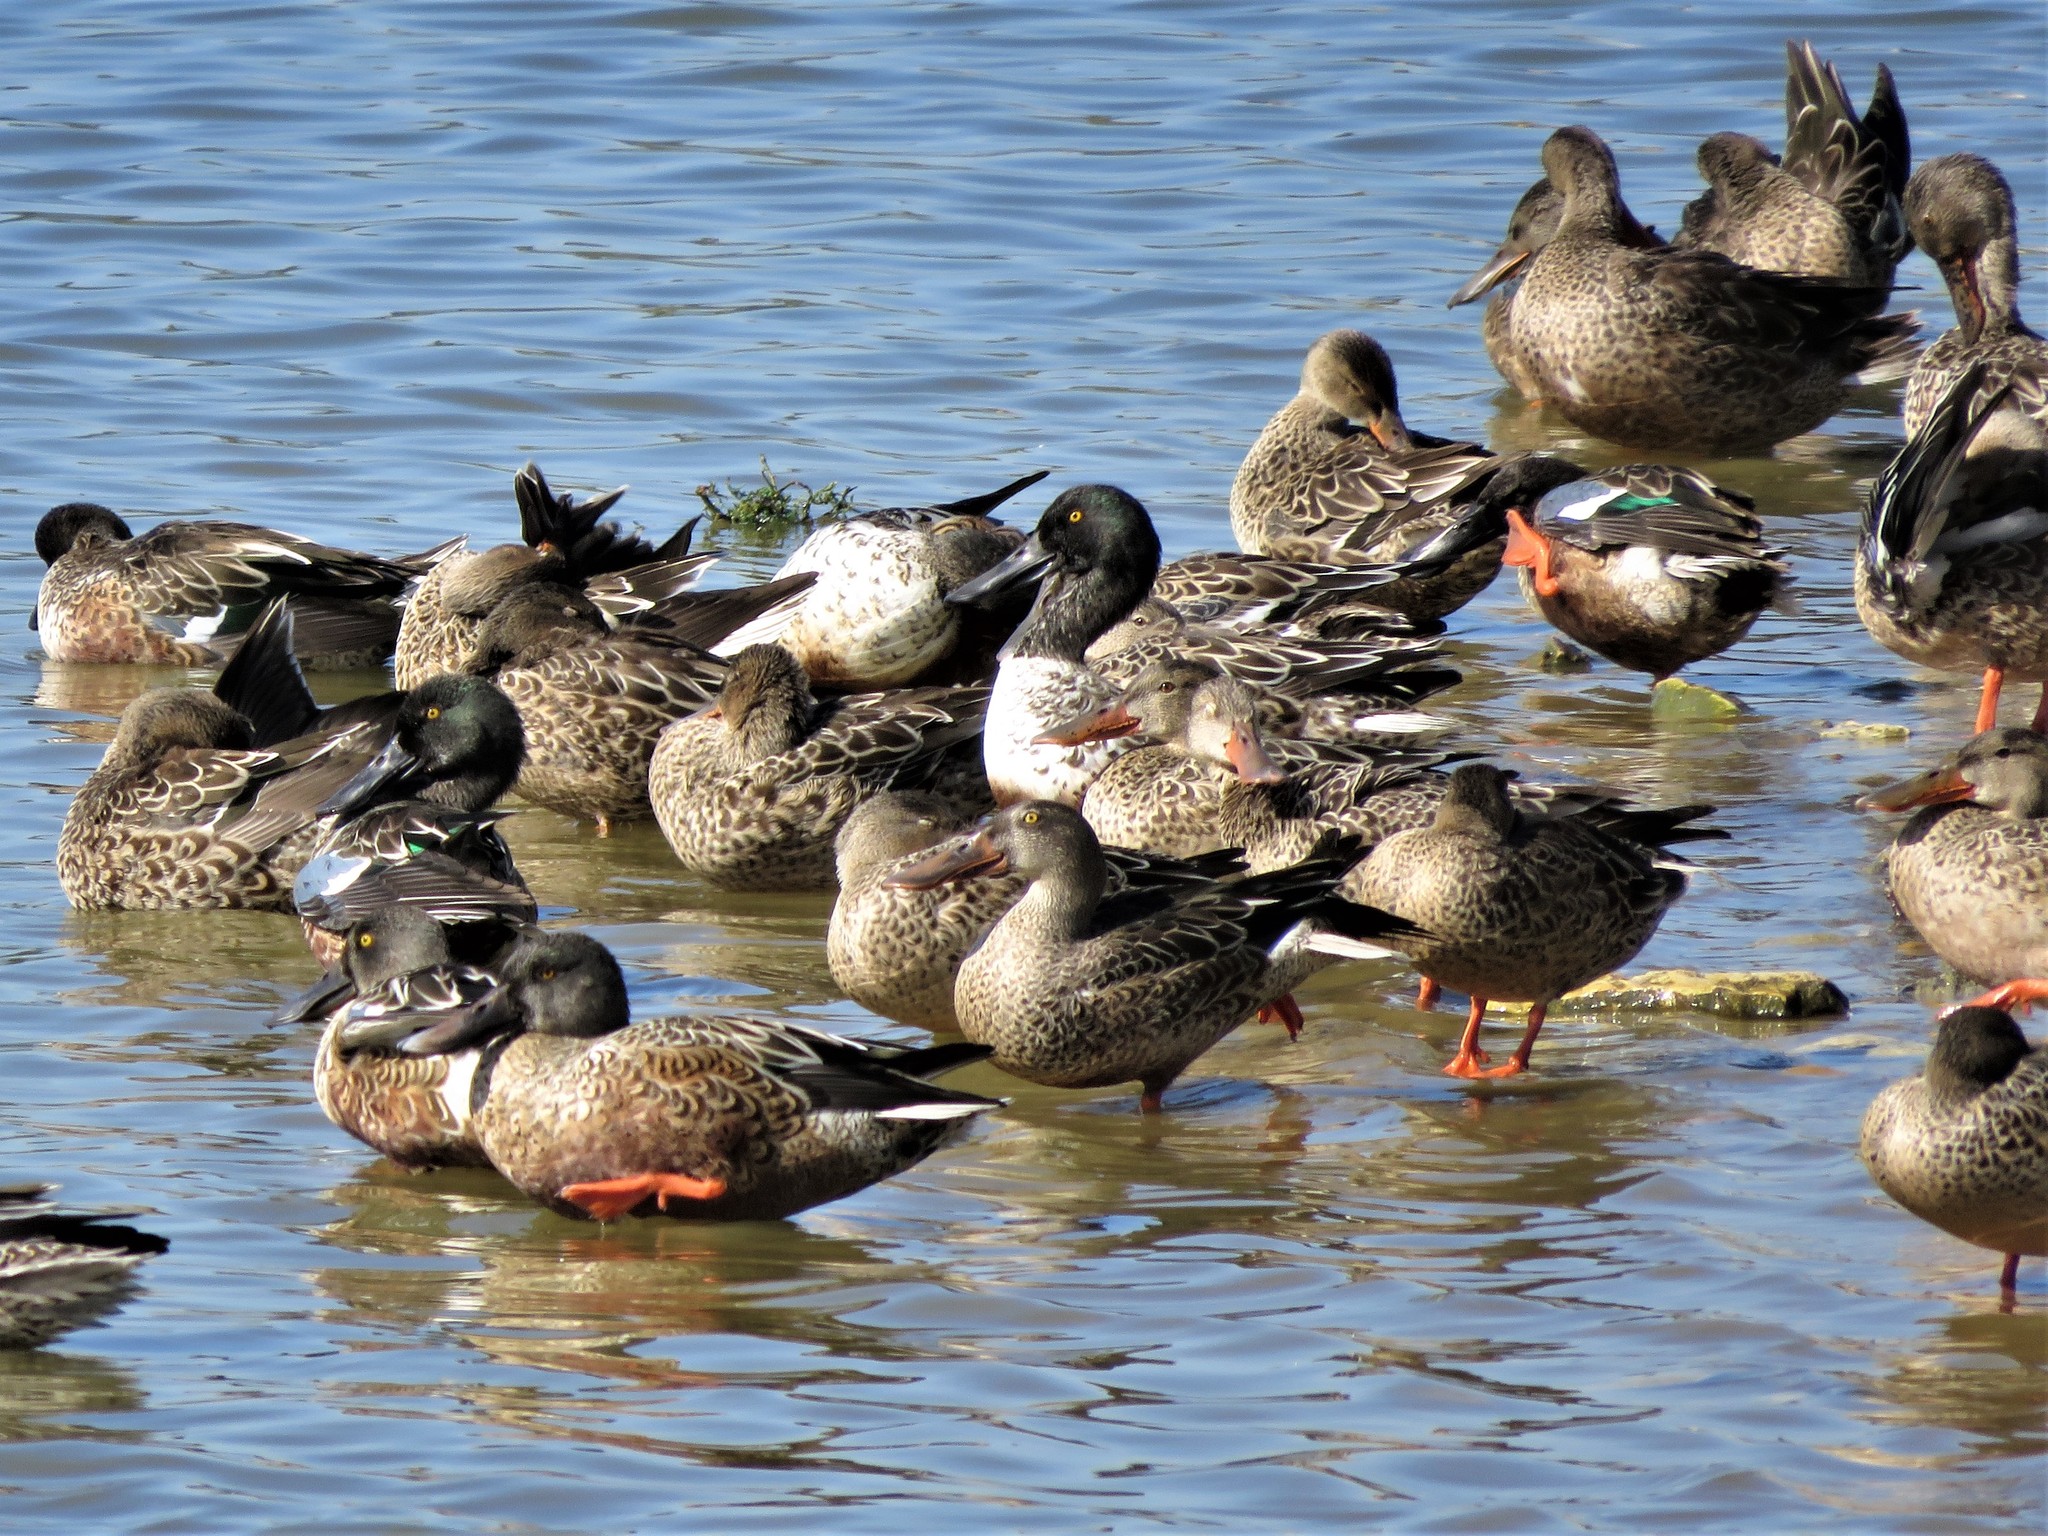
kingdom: Animalia
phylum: Chordata
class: Aves
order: Anseriformes
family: Anatidae
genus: Spatula
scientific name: Spatula clypeata
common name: Northern shoveler
